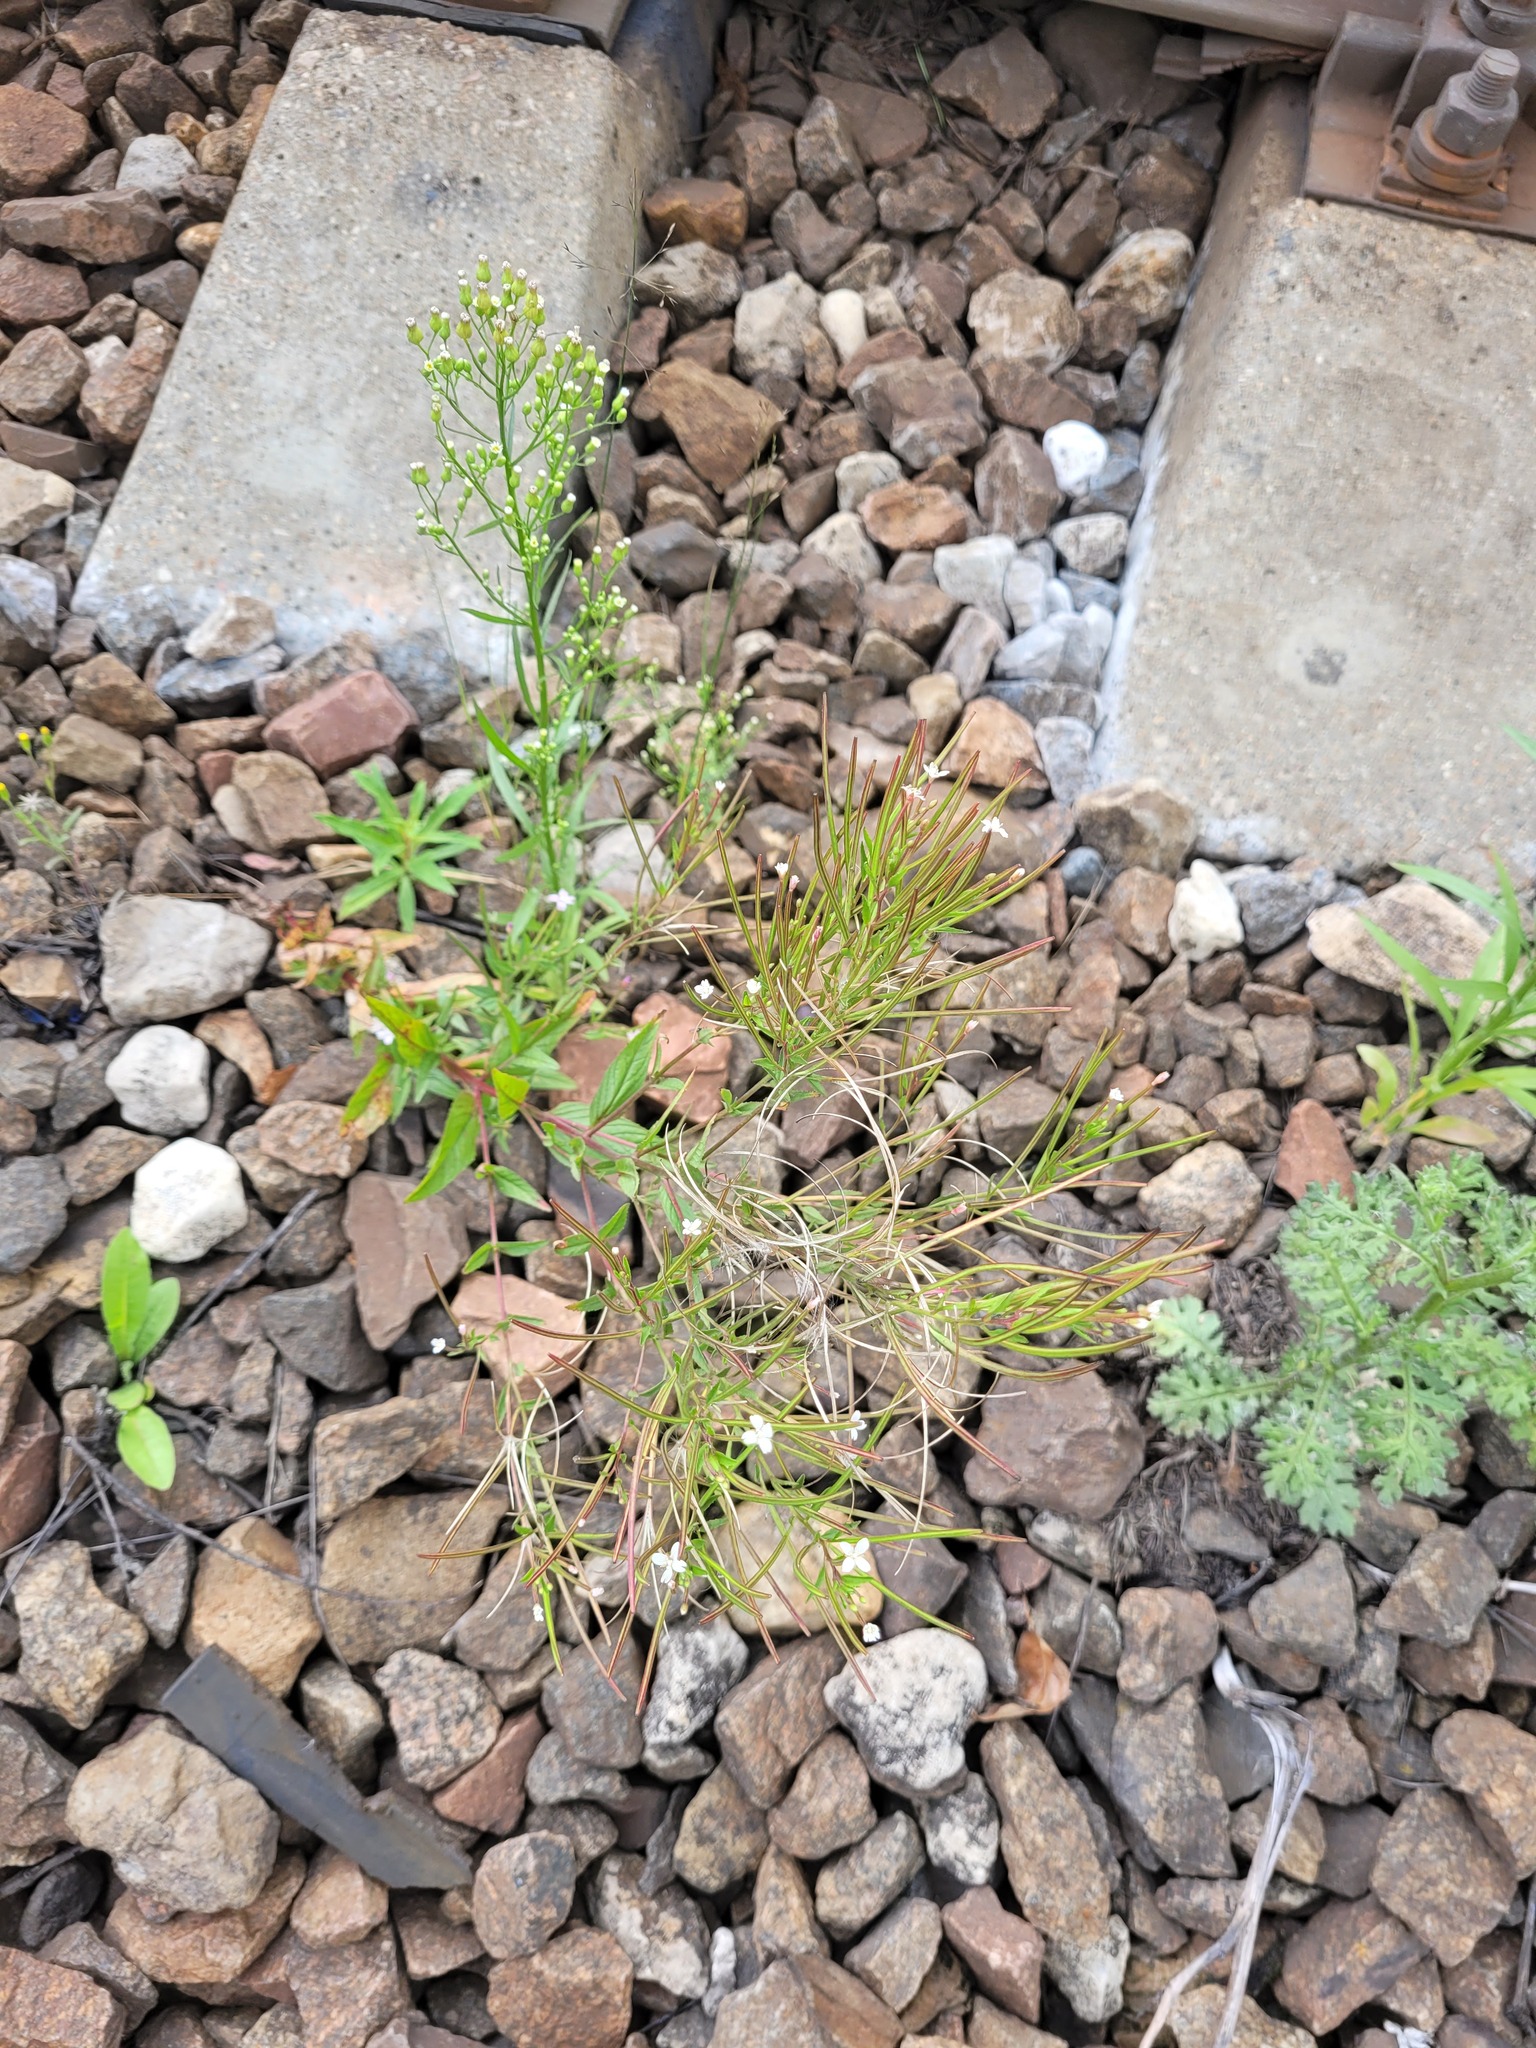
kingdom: Plantae
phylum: Tracheophyta
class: Magnoliopsida
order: Myrtales
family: Onagraceae
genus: Epilobium
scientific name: Epilobium pseudorubescens
